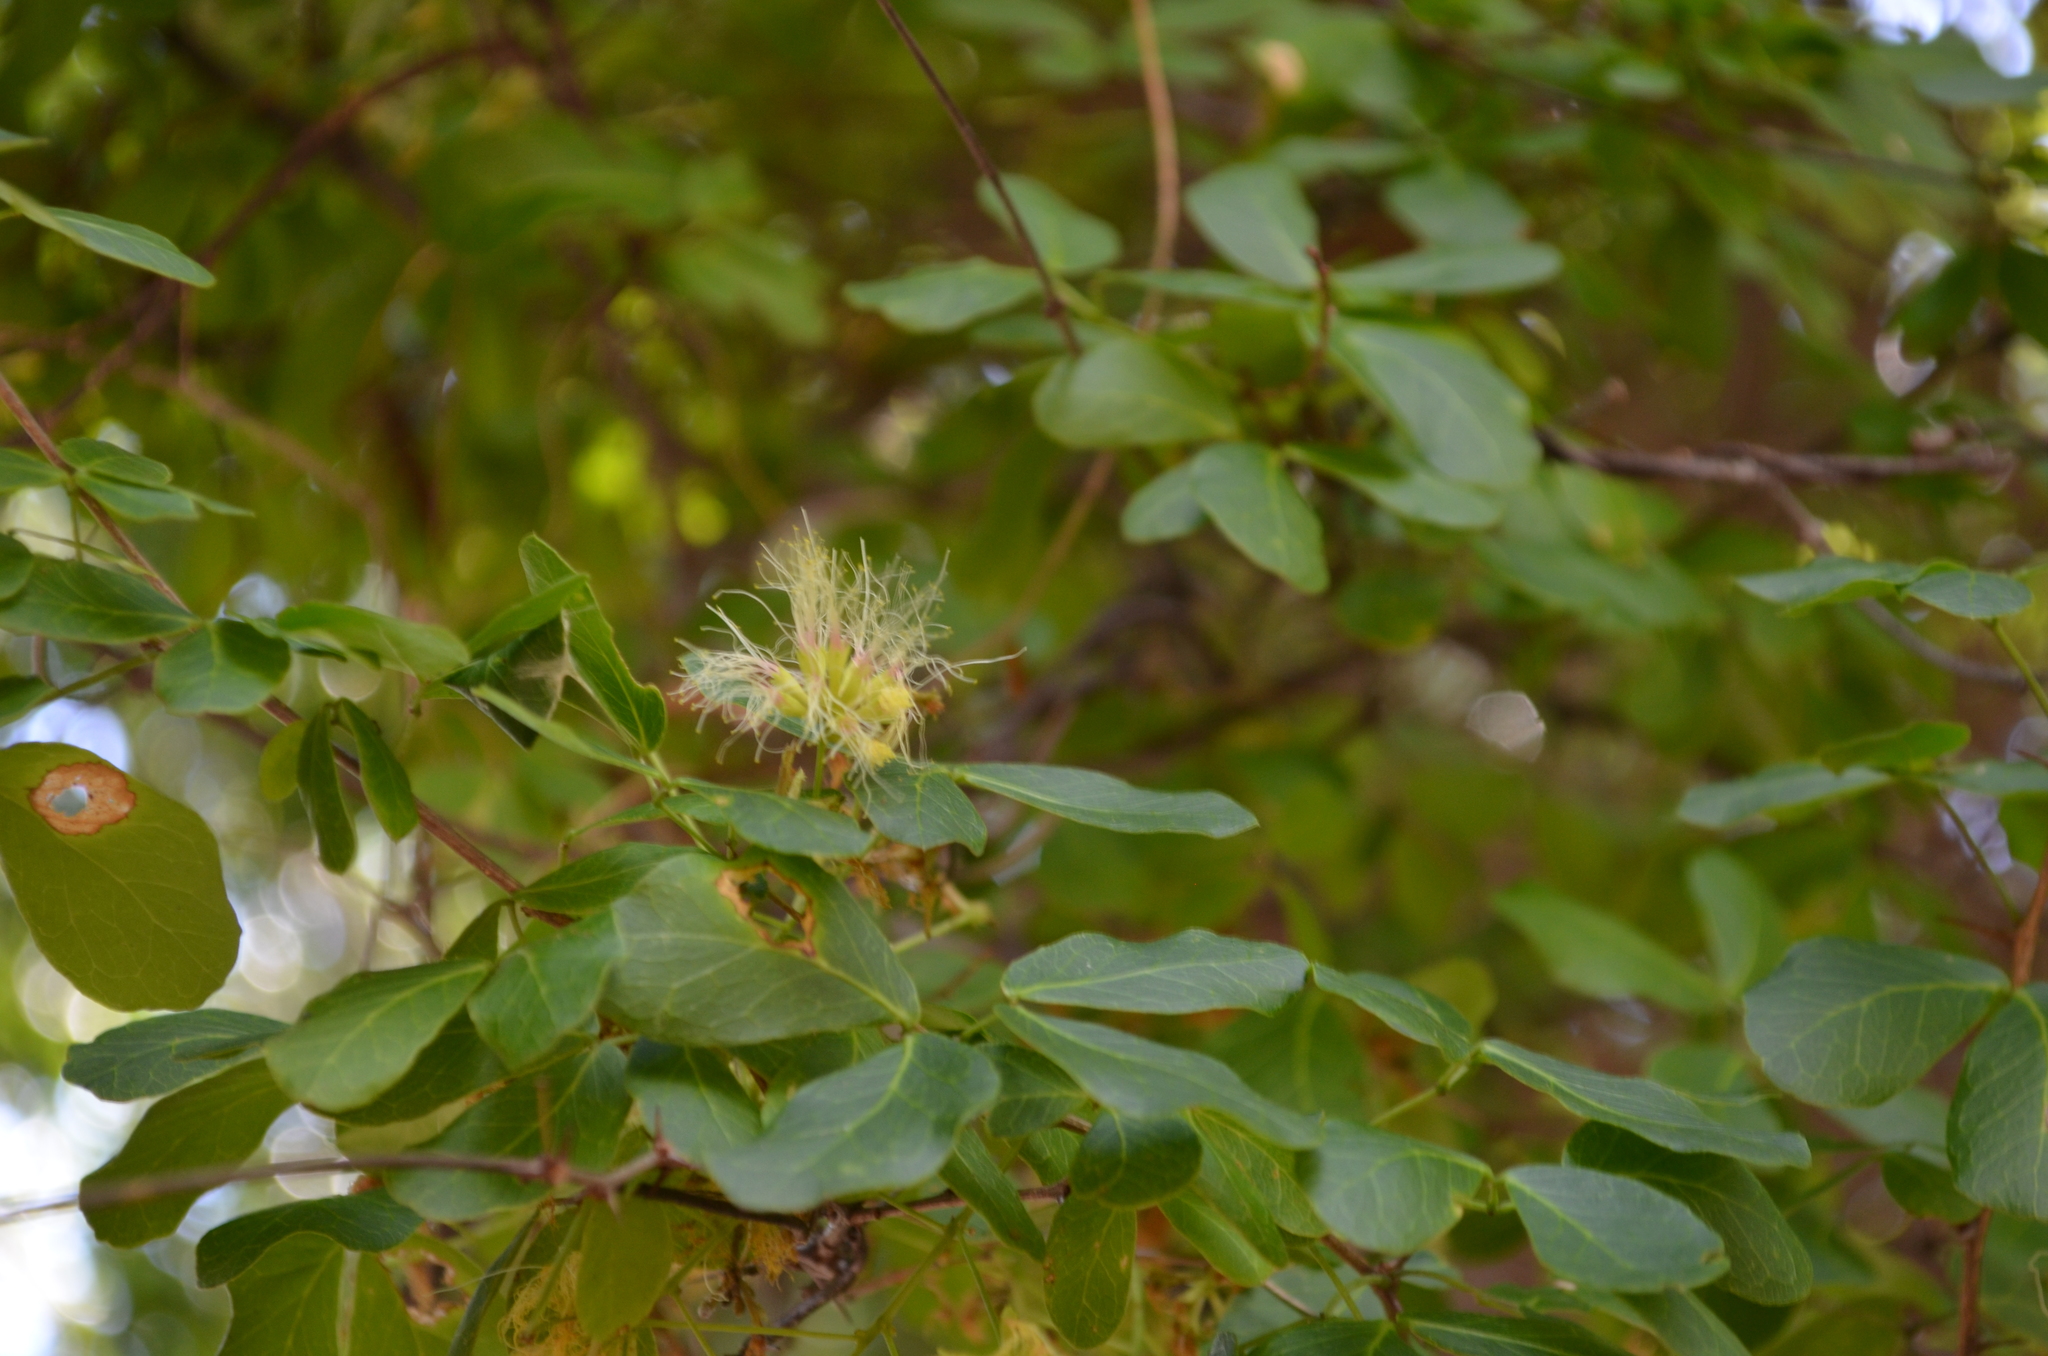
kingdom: Plantae
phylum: Tracheophyta
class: Magnoliopsida
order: Fabales
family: Fabaceae
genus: Pithecellobium
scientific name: Pithecellobium unguis-cati
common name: Cat's-claw
